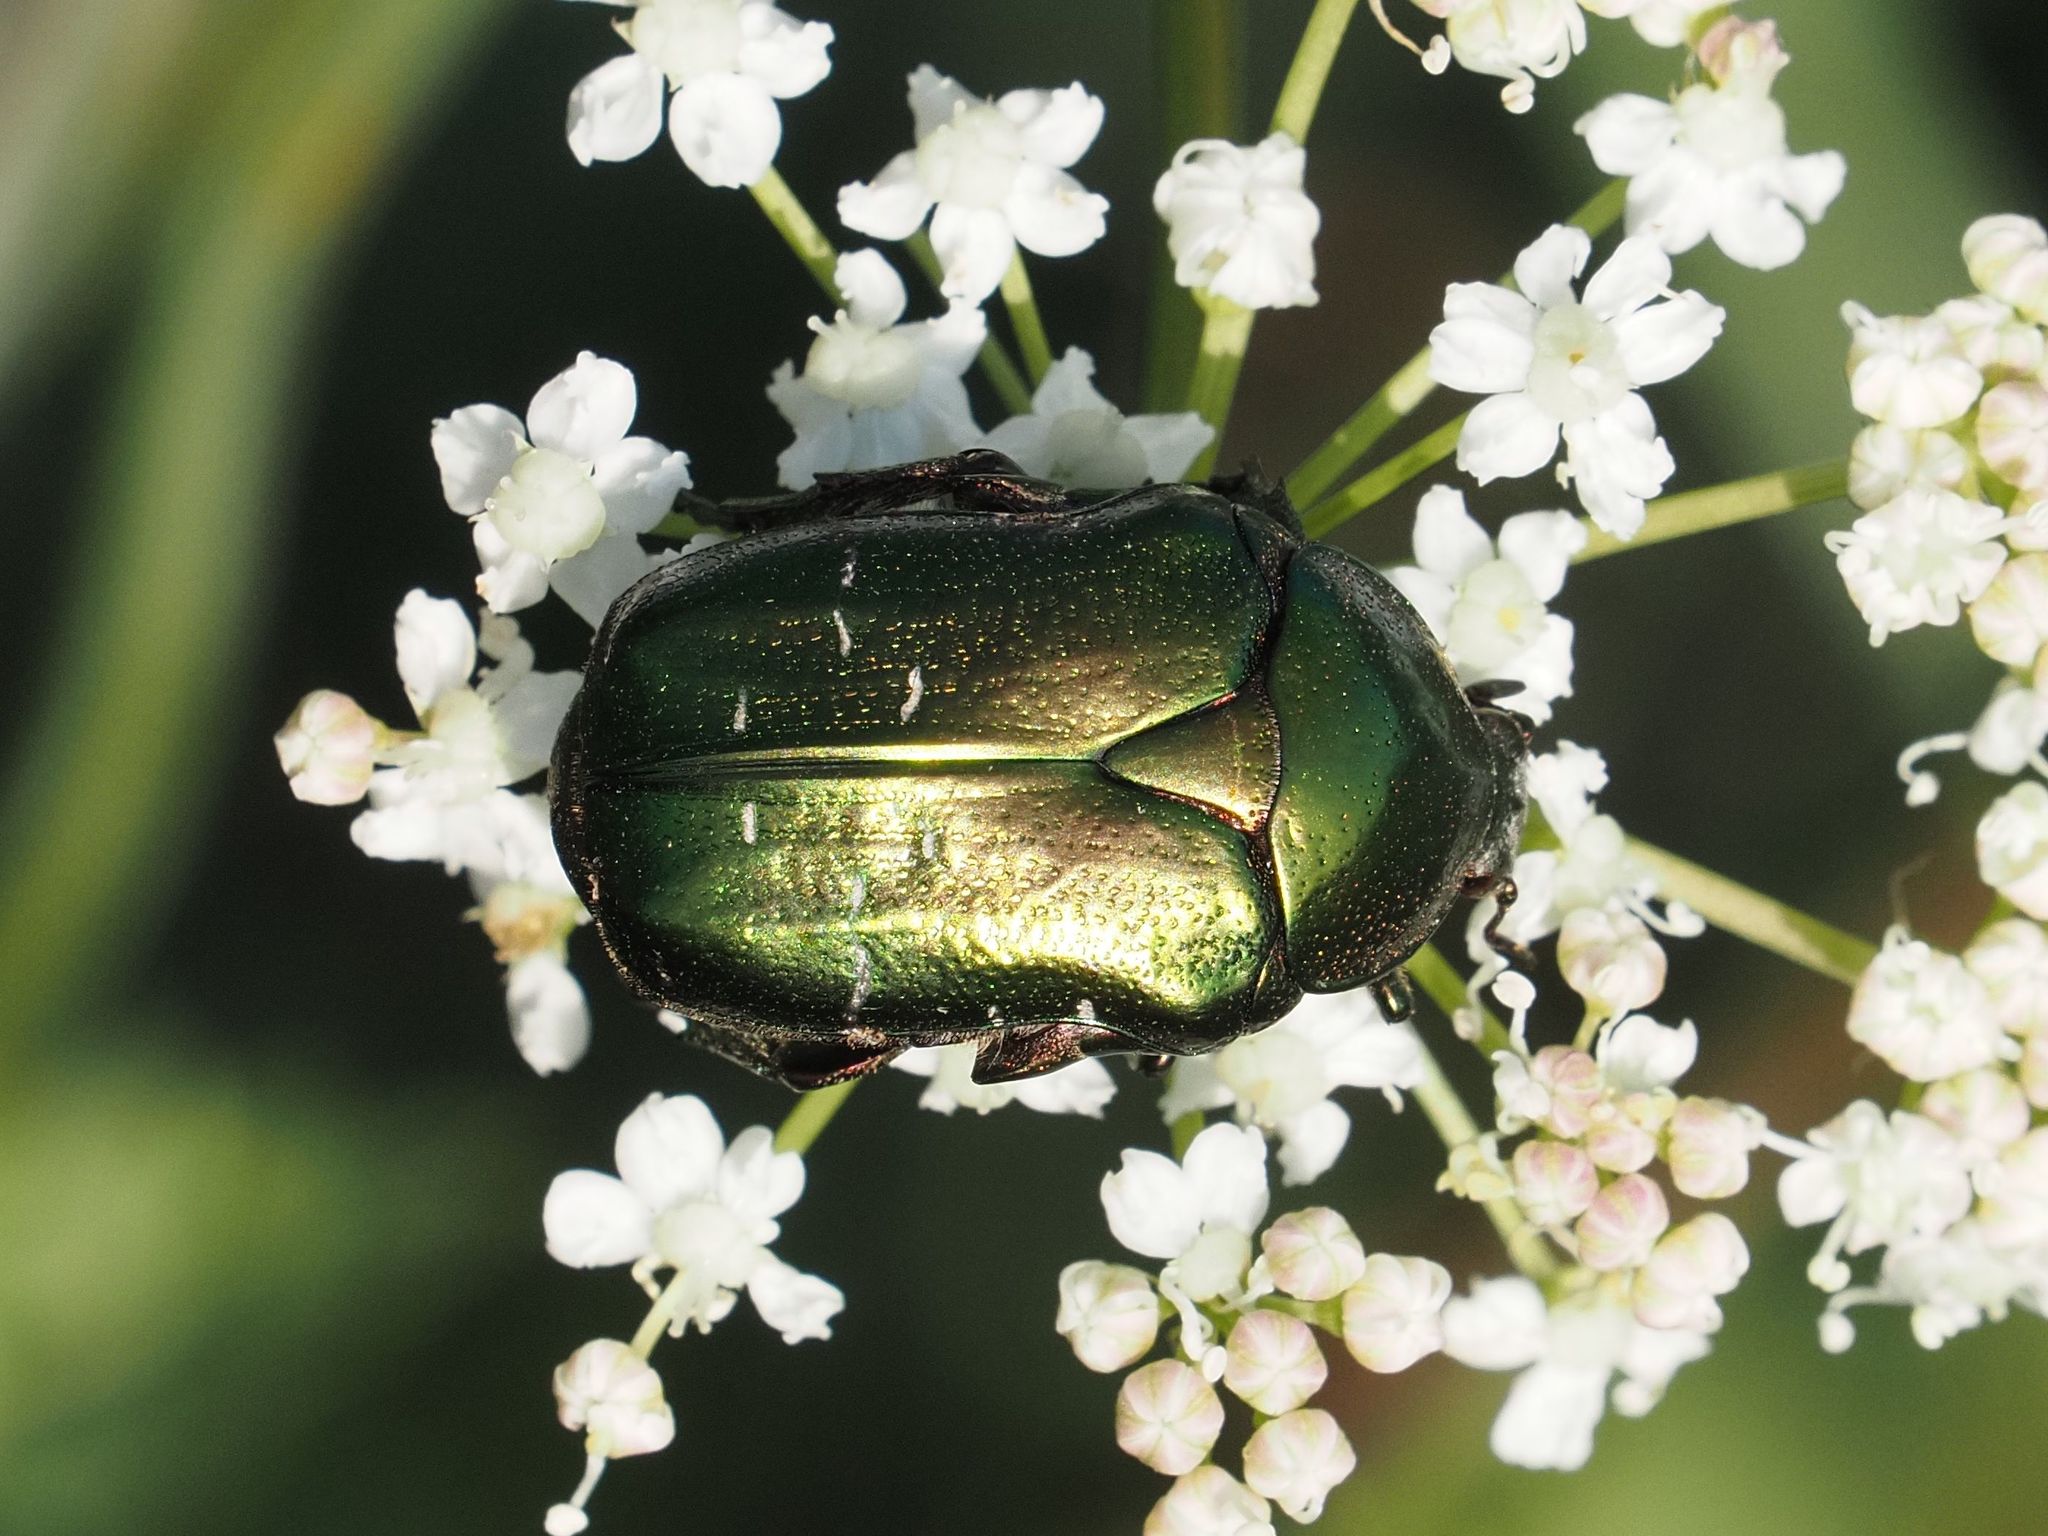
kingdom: Animalia
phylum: Arthropoda
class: Insecta
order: Coleoptera
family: Scarabaeidae
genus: Cetonia
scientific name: Cetonia aurata
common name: Rose chafer
